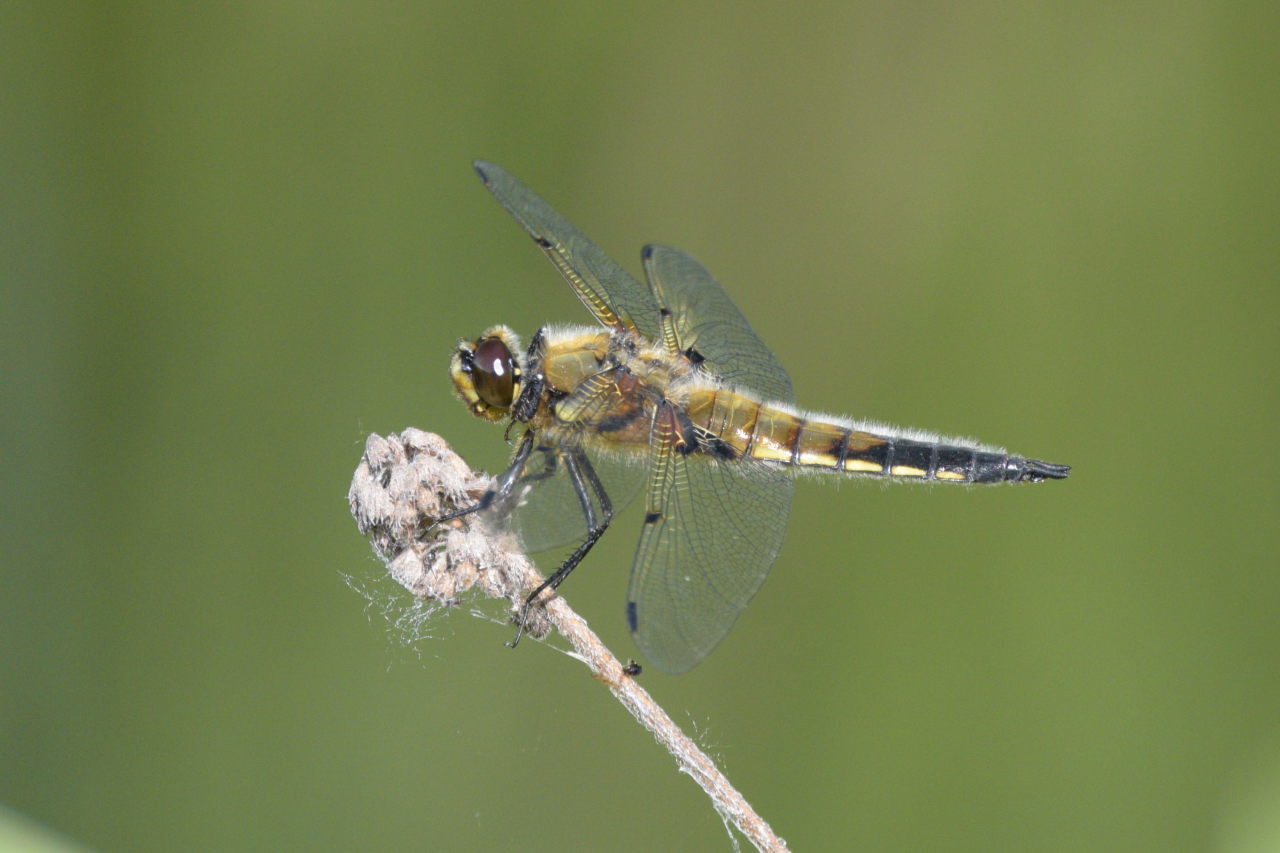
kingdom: Animalia
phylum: Arthropoda
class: Insecta
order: Odonata
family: Libellulidae
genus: Libellula
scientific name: Libellula quadrimaculata
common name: Four-spotted chaser
